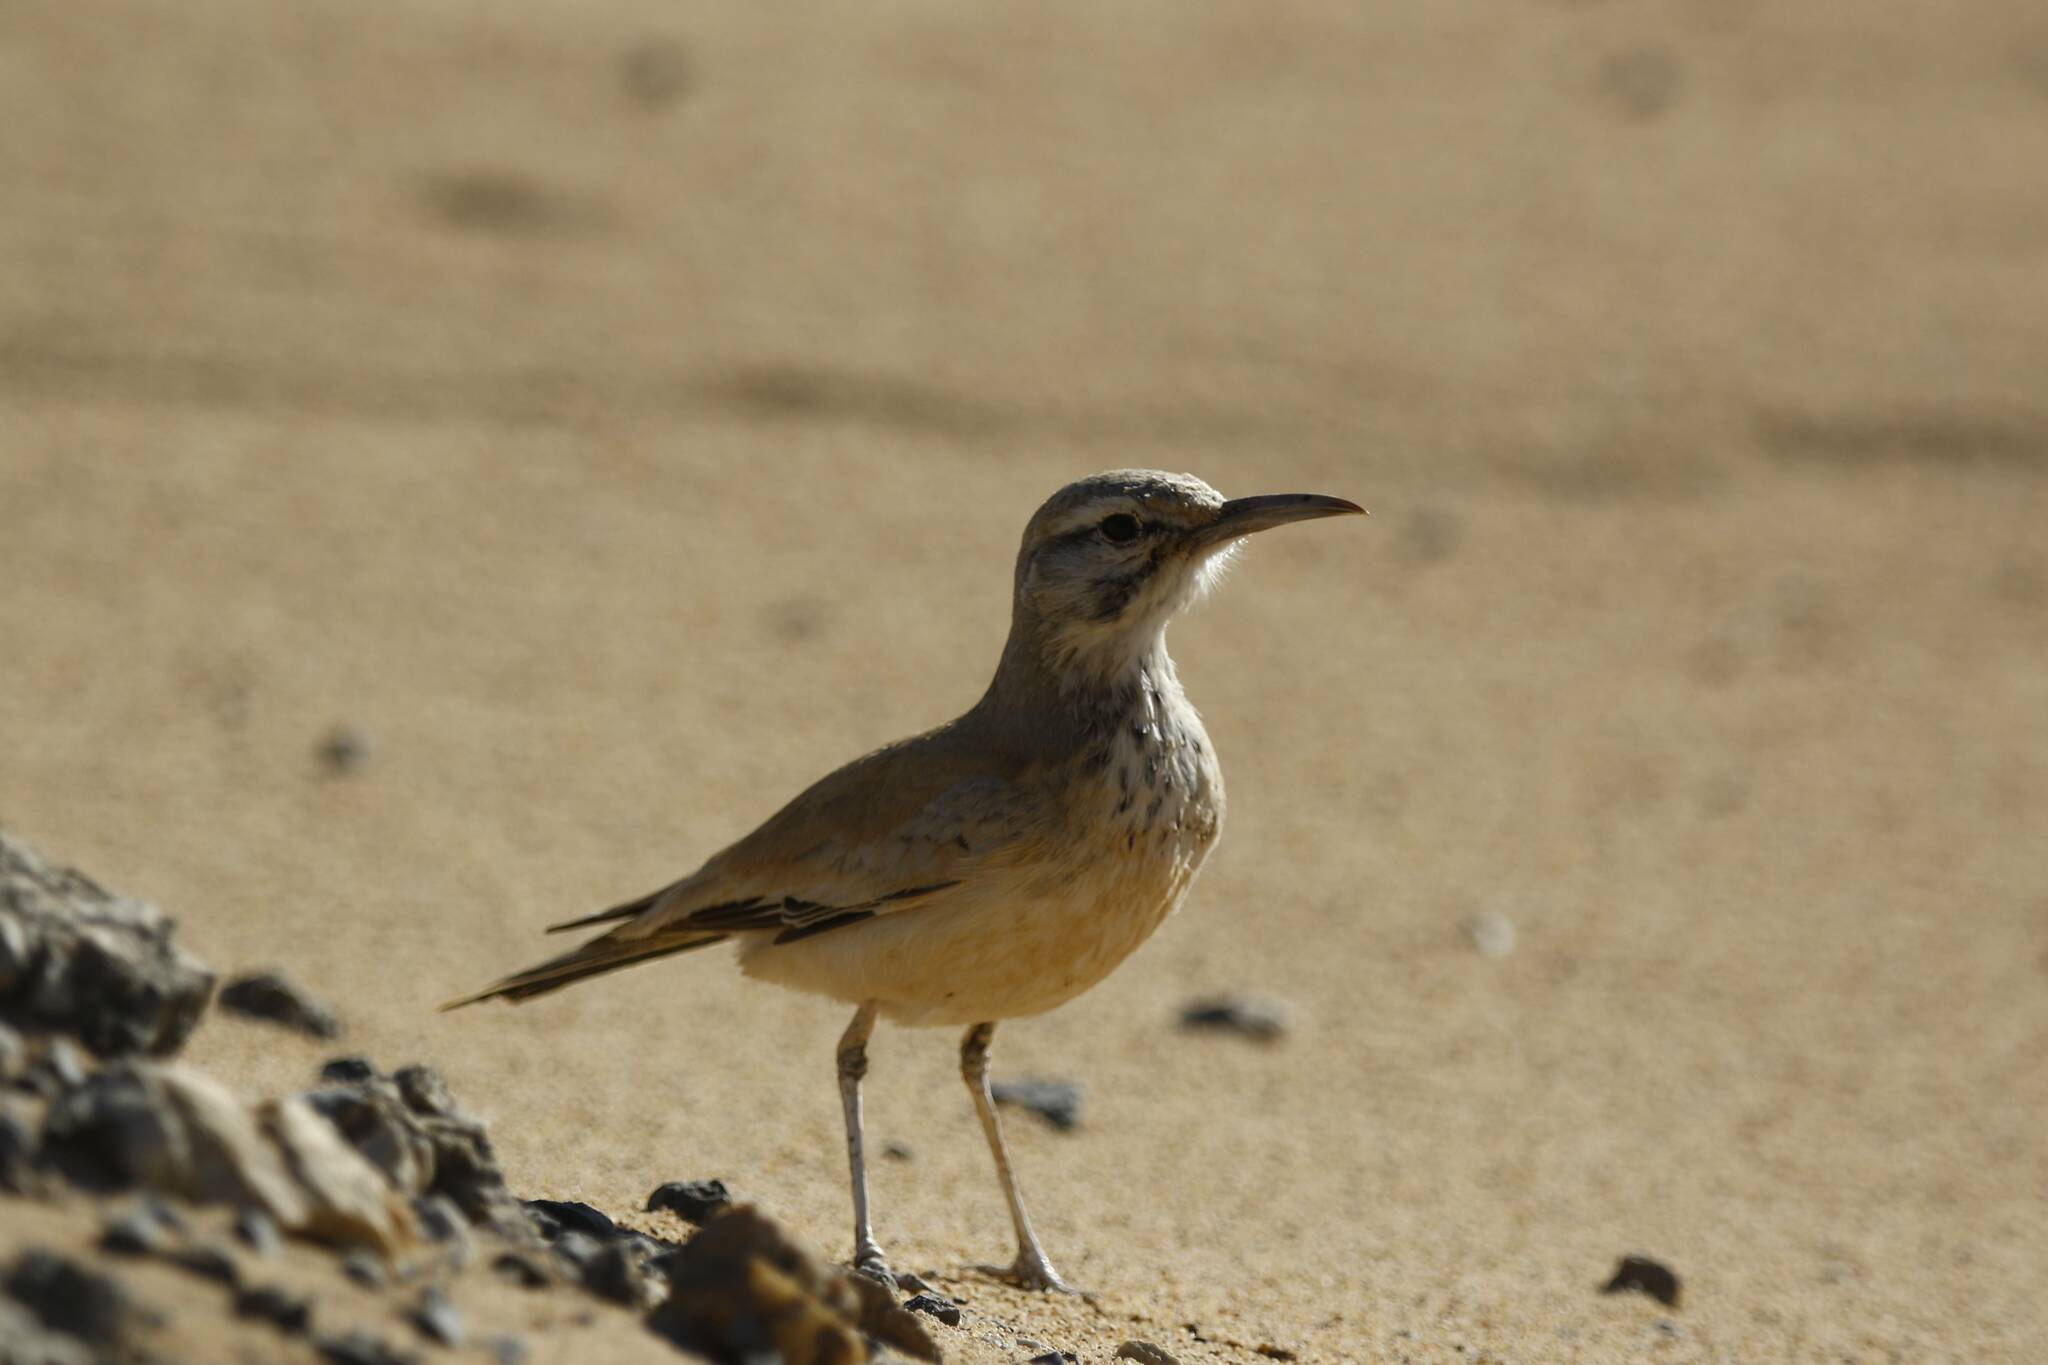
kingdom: Animalia
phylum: Chordata
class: Aves
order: Passeriformes
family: Alaudidae
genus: Alaemon
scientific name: Alaemon alaudipes
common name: Greater hoopoe-lark
